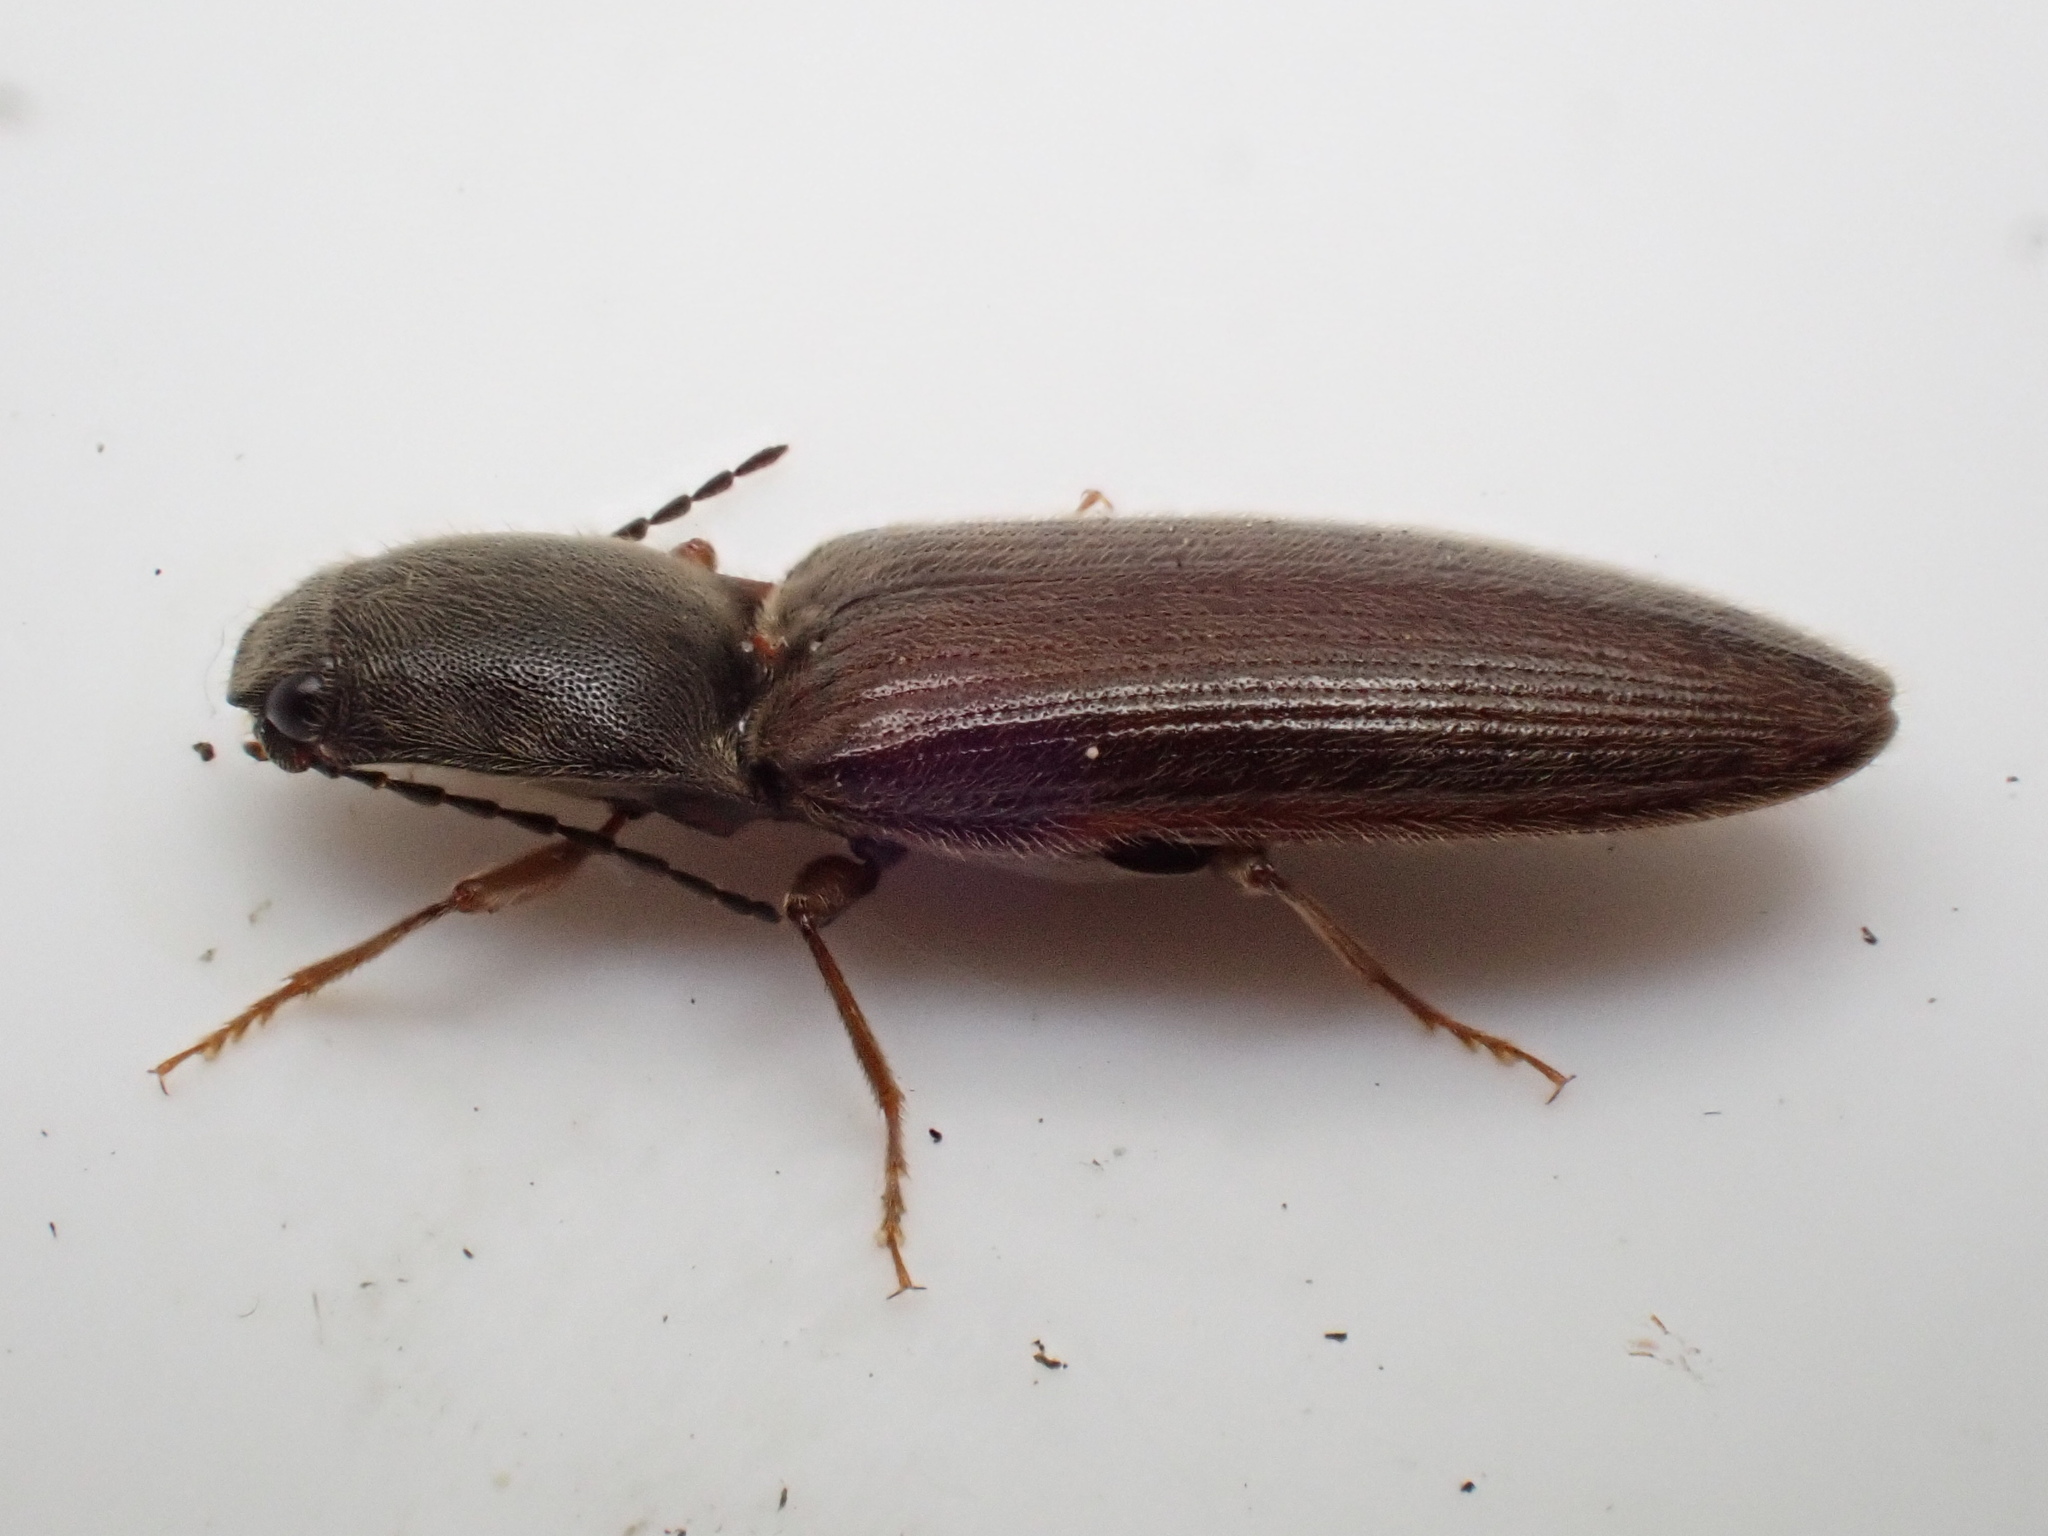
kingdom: Animalia
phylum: Arthropoda
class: Insecta
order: Coleoptera
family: Elateridae
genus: Athous
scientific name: Athous haemorrhoidalis
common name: Red-brown click beetle
